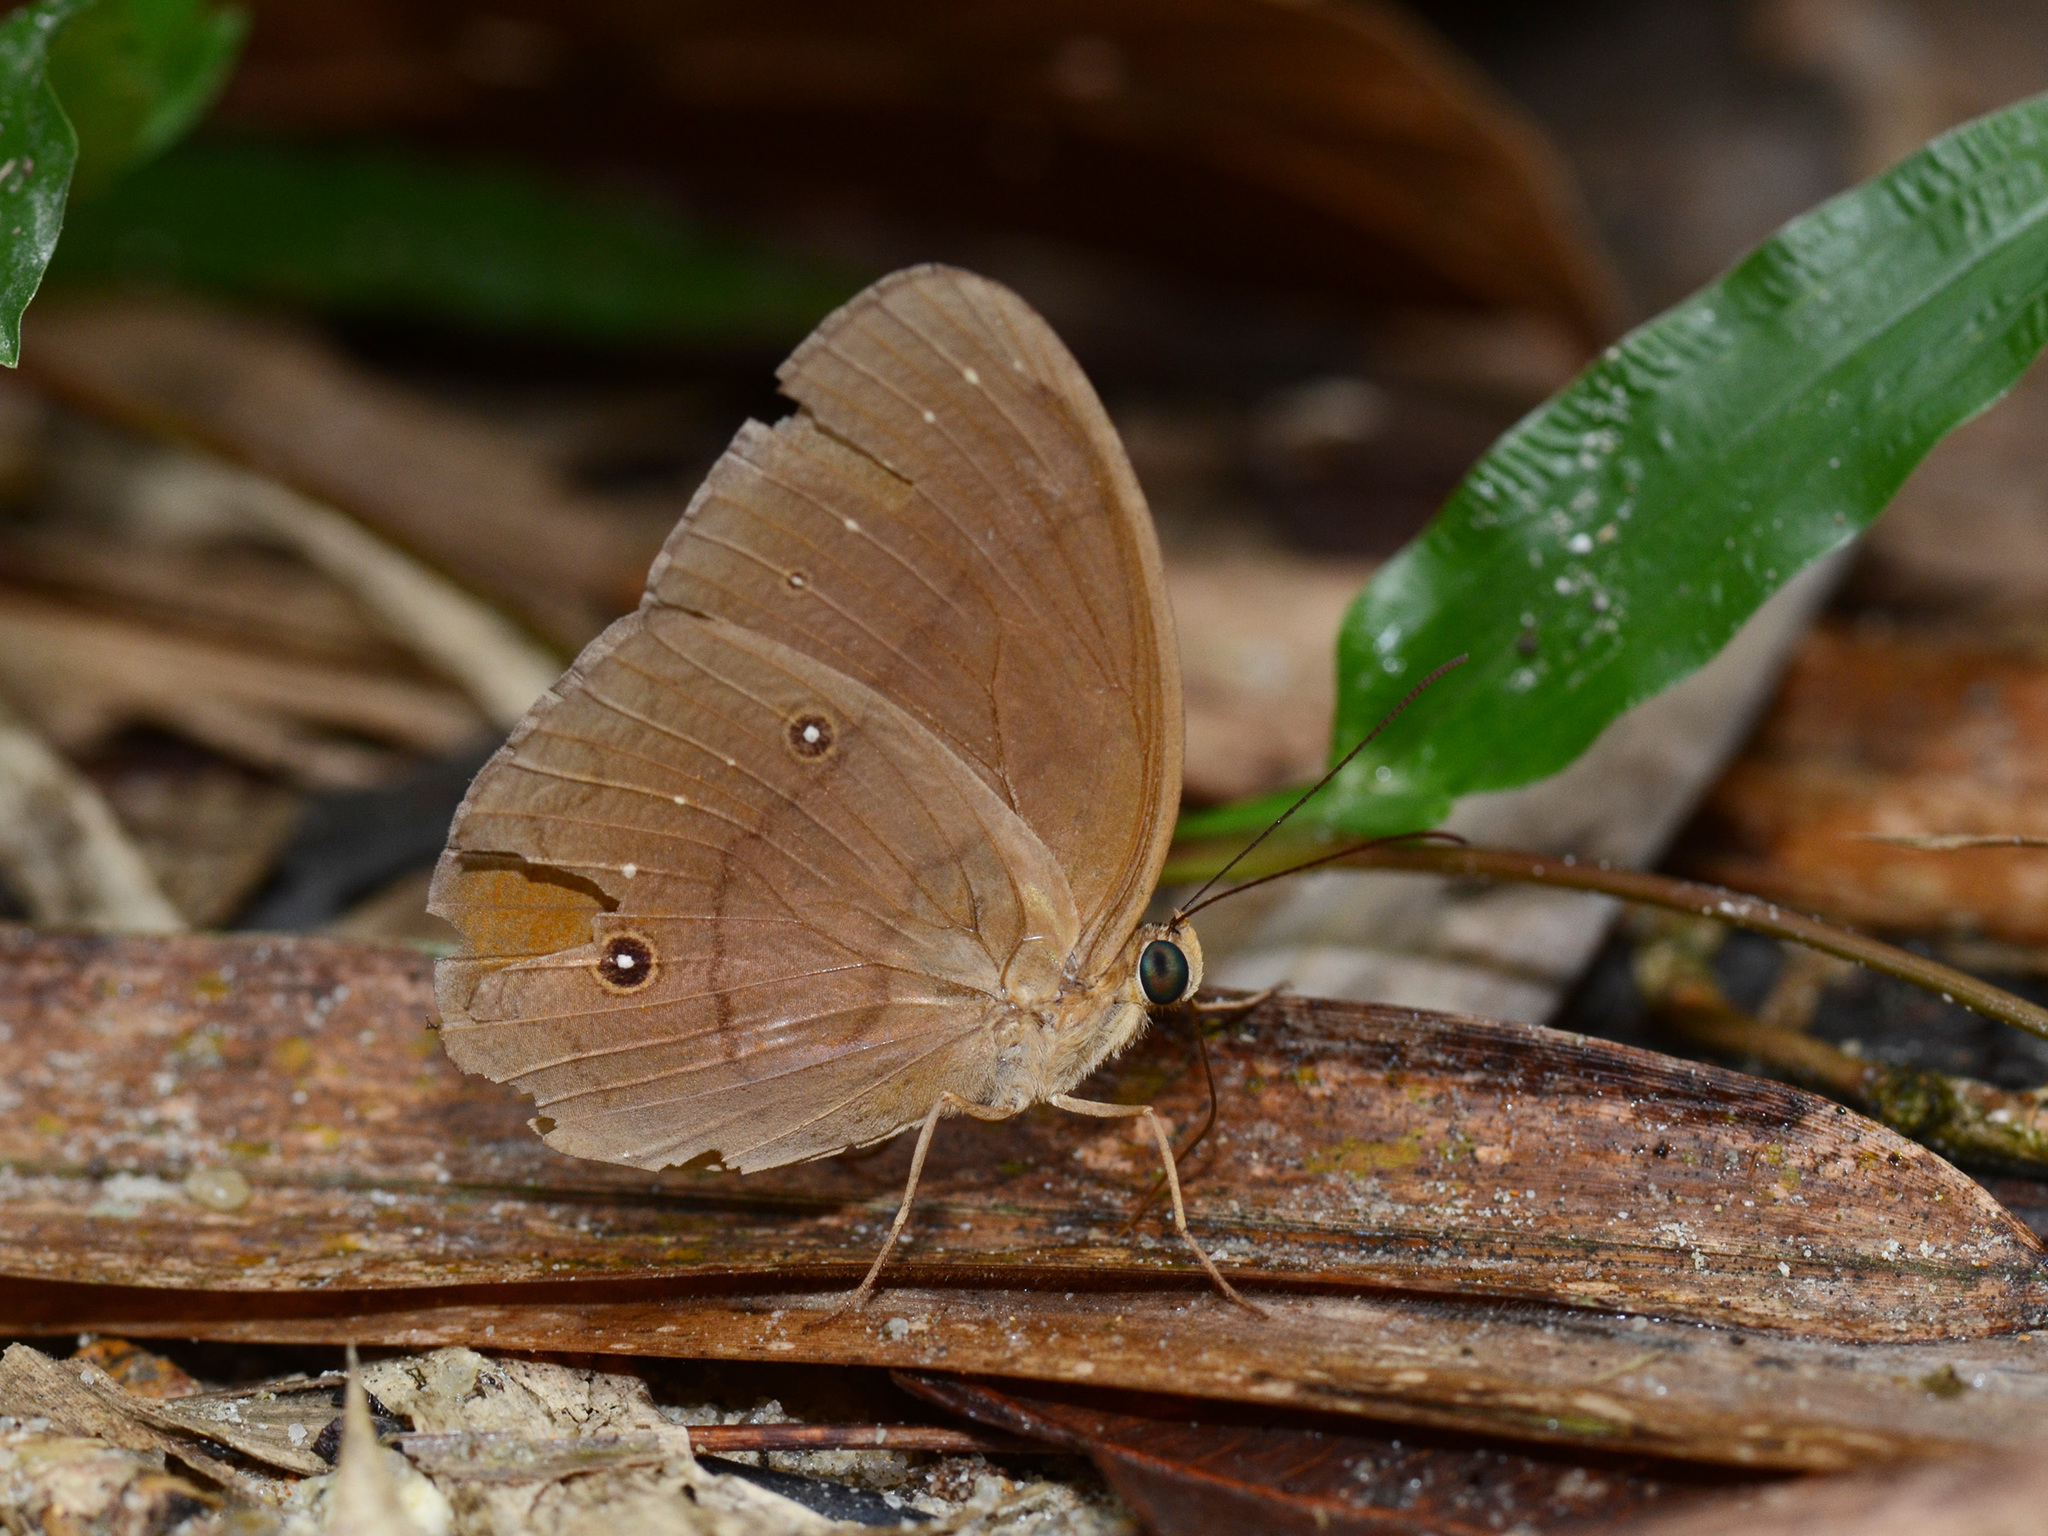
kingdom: Animalia
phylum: Arthropoda
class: Insecta
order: Lepidoptera
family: Nymphalidae
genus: Faunis
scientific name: Faunis gracilis
